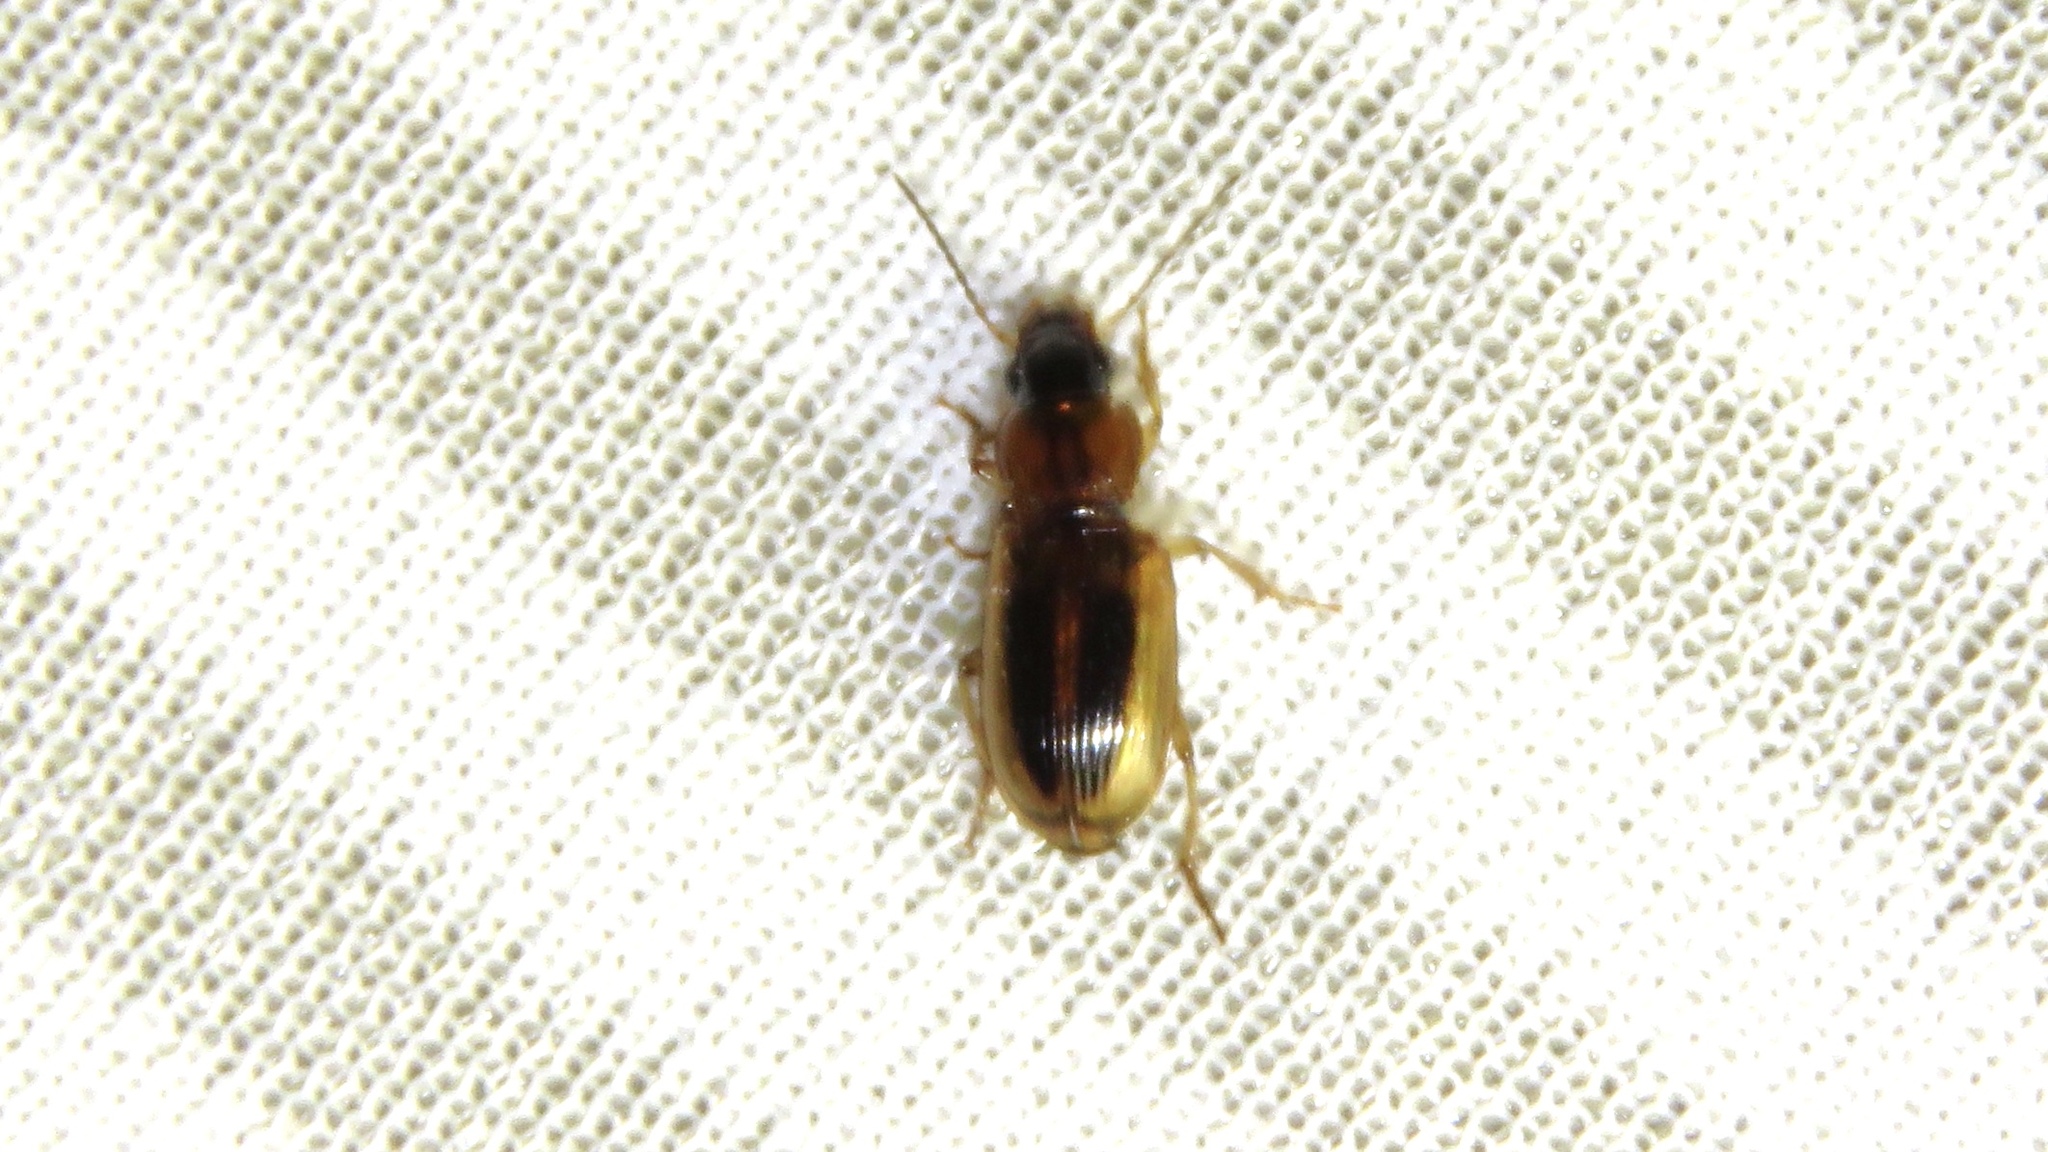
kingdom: Animalia
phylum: Arthropoda
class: Insecta
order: Coleoptera
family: Carabidae
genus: Stenolophus
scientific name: Stenolophus lecontei
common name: Leconte's seedcorn beetle
